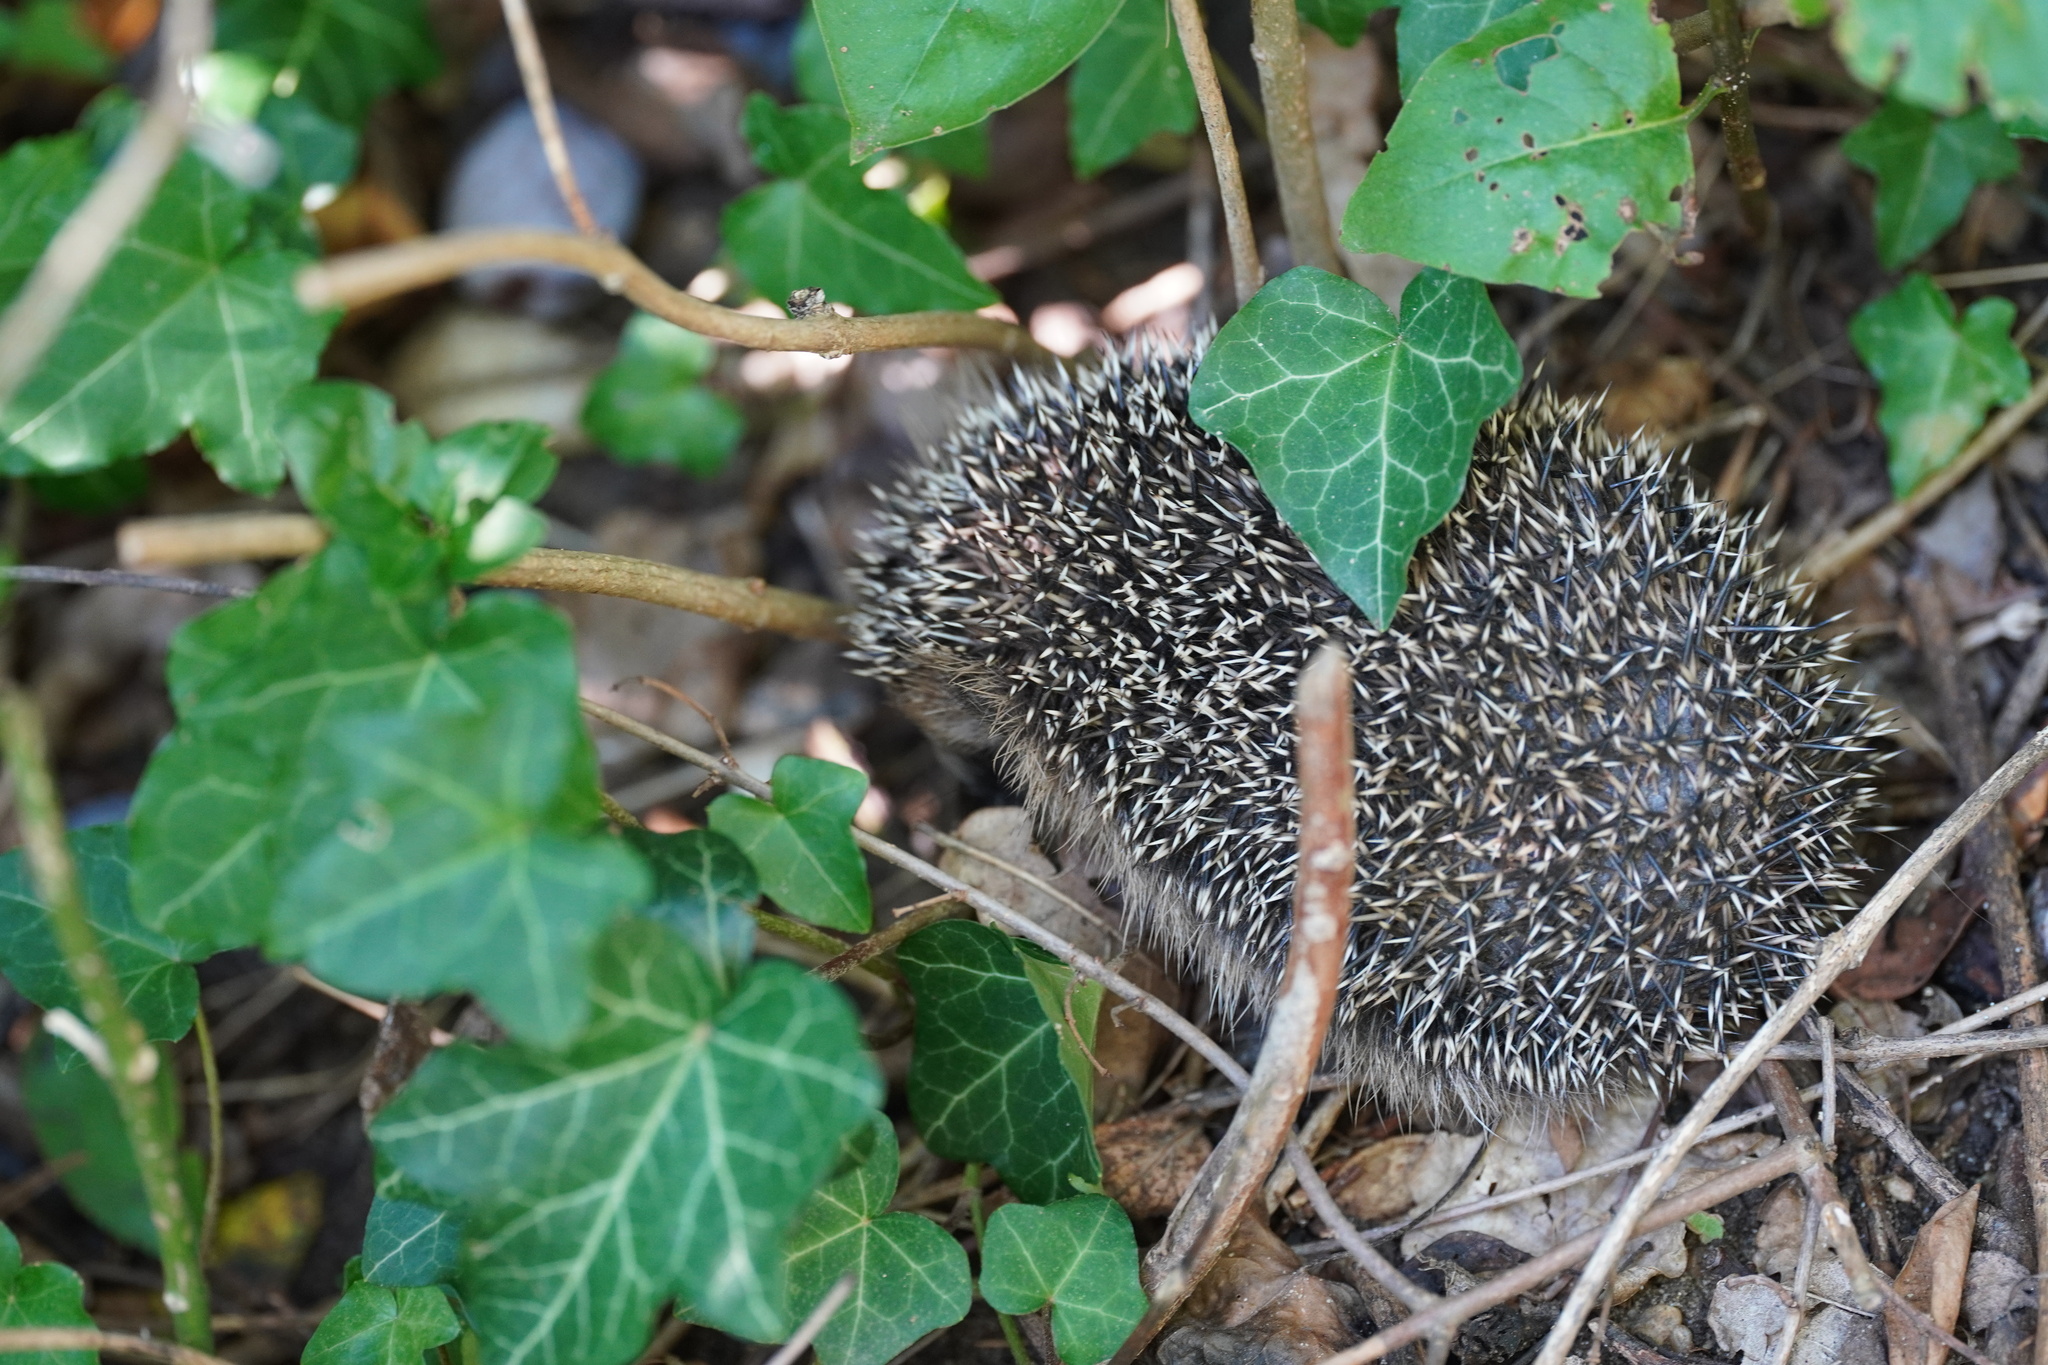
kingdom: Animalia
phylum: Chordata
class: Mammalia
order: Erinaceomorpha
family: Erinaceidae
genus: Erinaceus
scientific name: Erinaceus europaeus
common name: West european hedgehog
